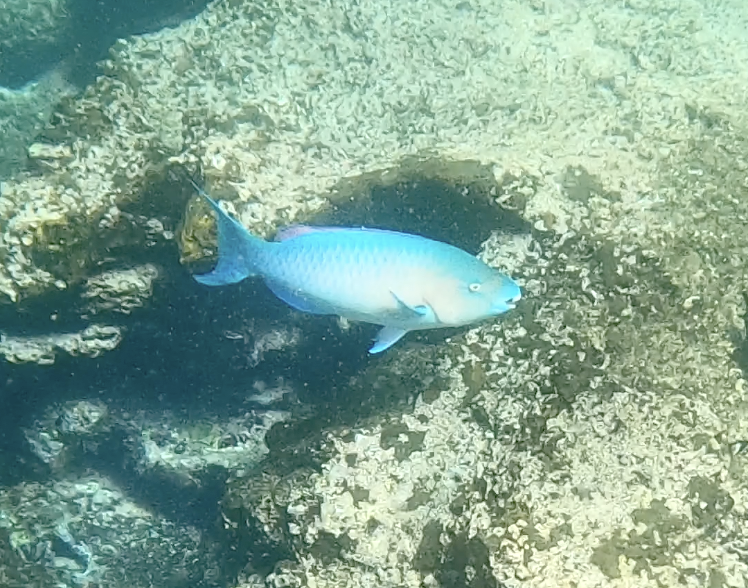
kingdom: Animalia
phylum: Chordata
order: Perciformes
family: Scaridae
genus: Scarus
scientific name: Scarus ghobban
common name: Blue-barred parrotfish
